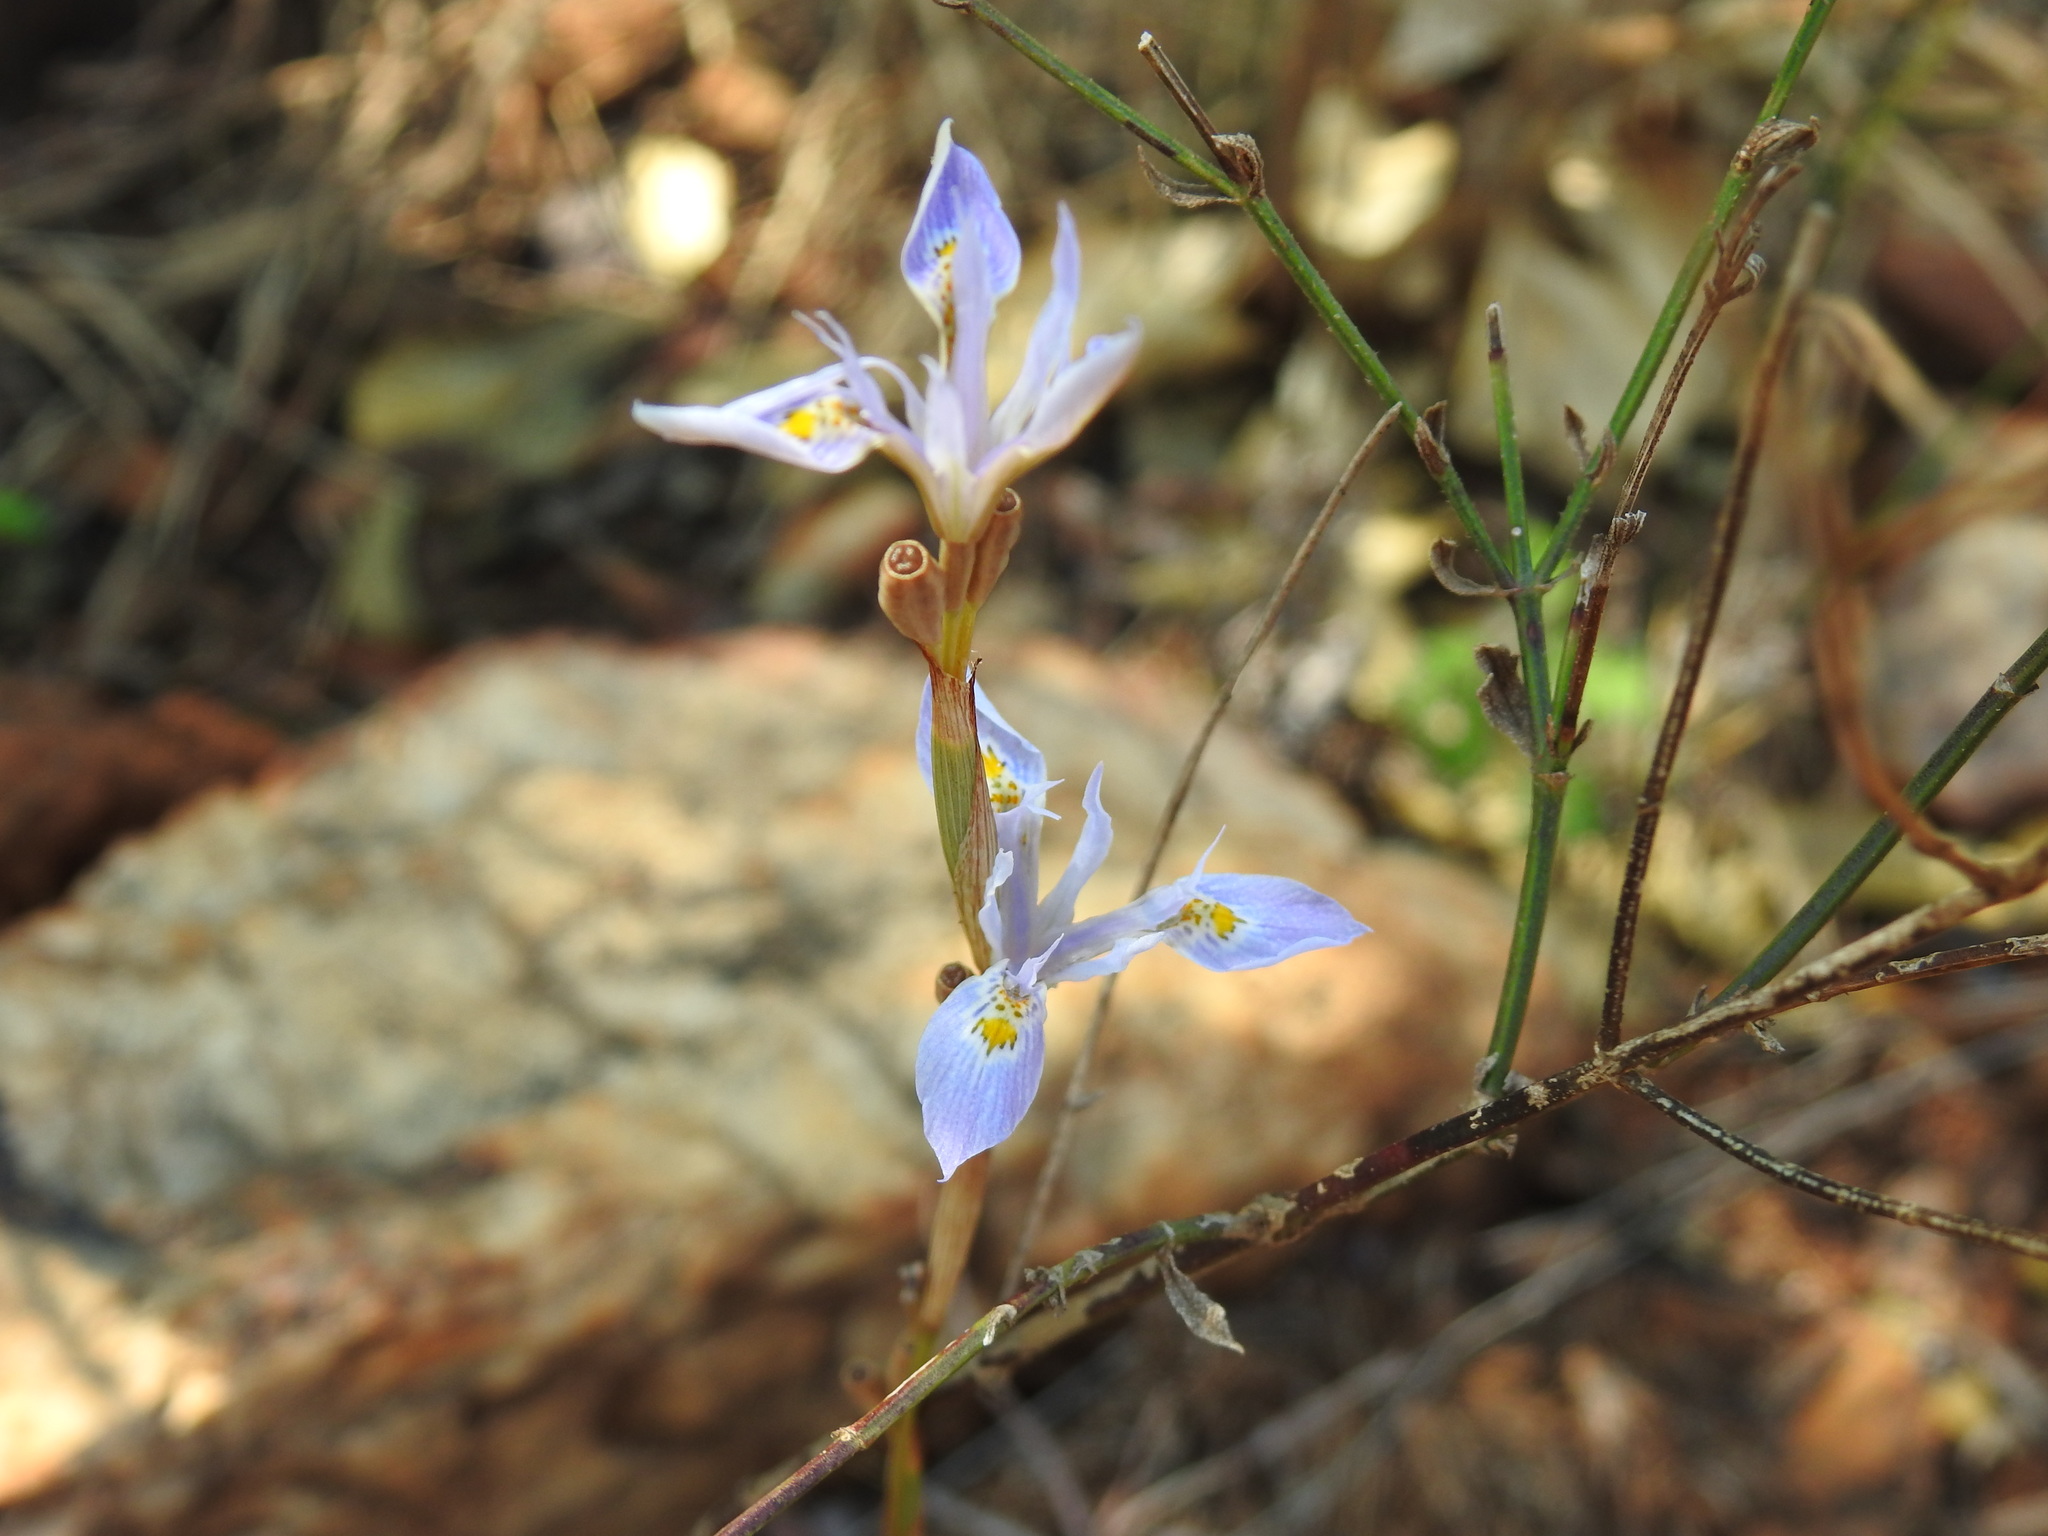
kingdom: Plantae
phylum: Tracheophyta
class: Liliopsida
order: Asparagales
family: Iridaceae
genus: Moraea
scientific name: Moraea stricta
